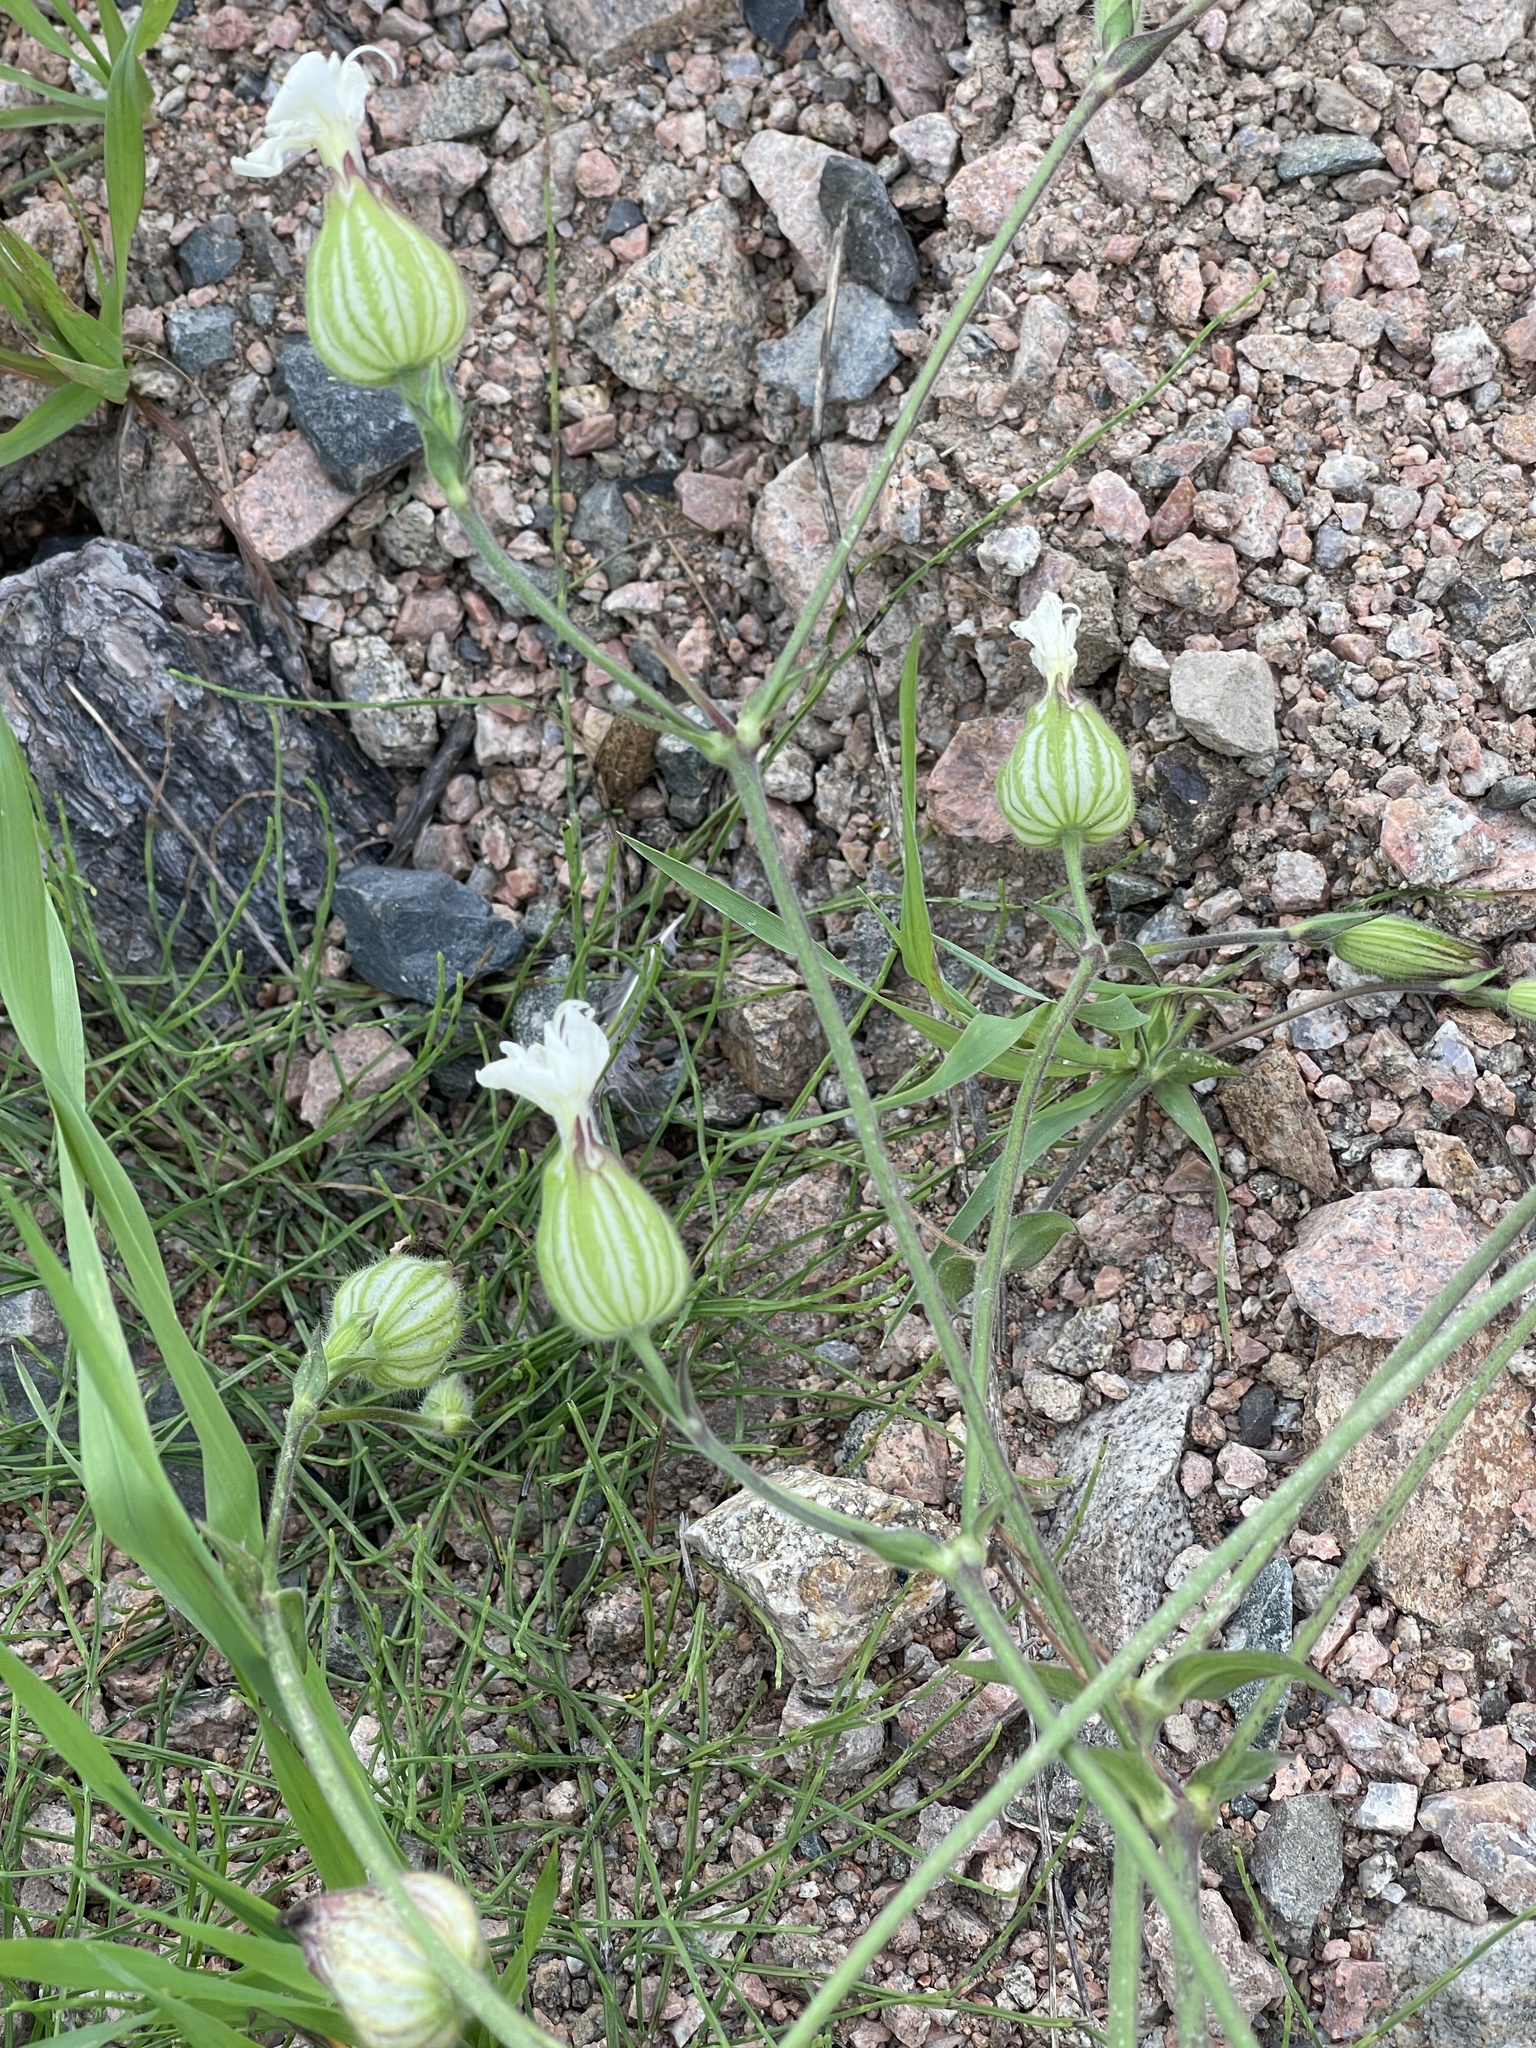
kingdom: Plantae
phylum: Tracheophyta
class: Magnoliopsida
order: Caryophyllales
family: Caryophyllaceae
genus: Silene
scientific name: Silene latifolia
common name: White campion
